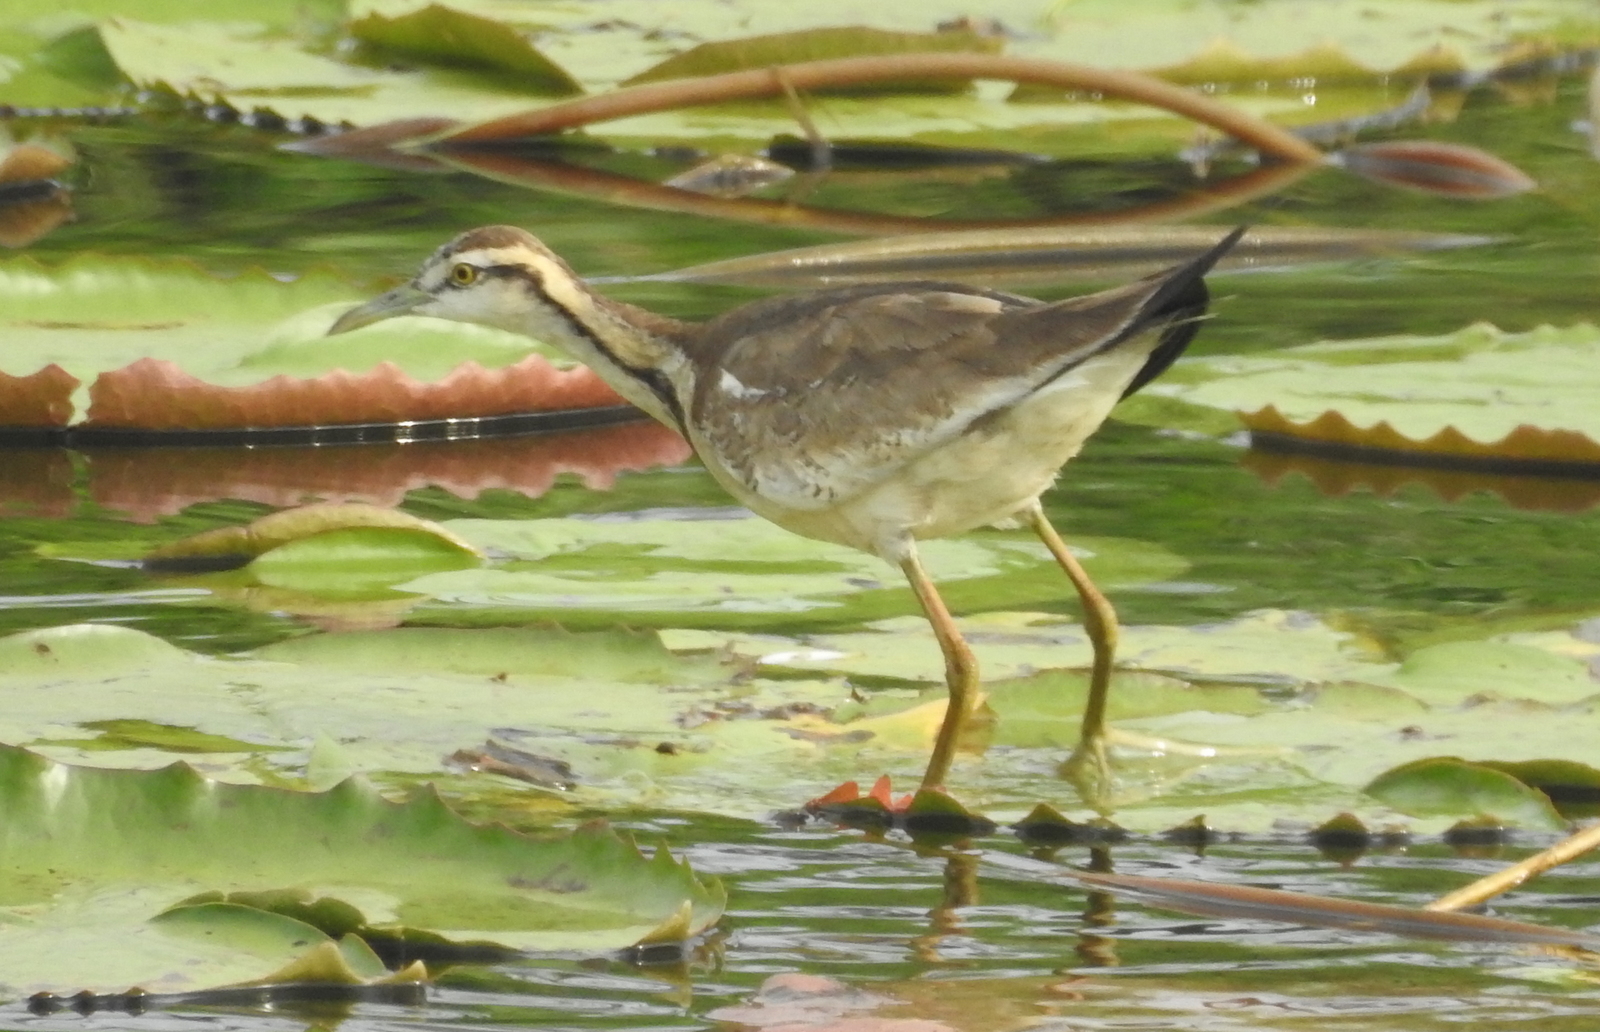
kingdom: Animalia
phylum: Chordata
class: Aves
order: Charadriiformes
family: Jacanidae
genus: Hydrophasianus
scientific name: Hydrophasianus chirurgus
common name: Pheasant-tailed jacana
